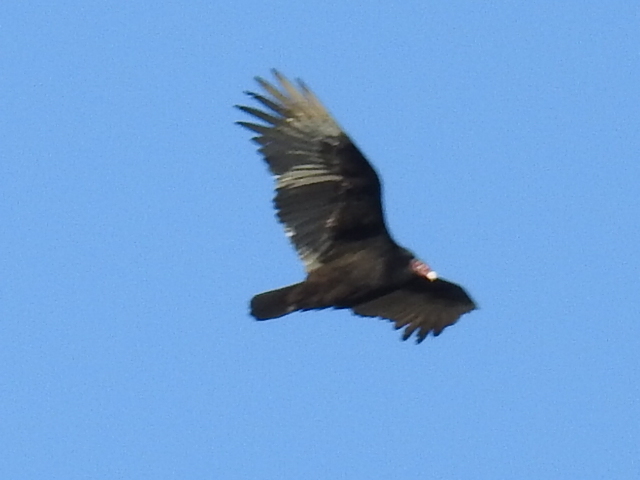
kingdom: Animalia
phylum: Chordata
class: Aves
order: Accipitriformes
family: Cathartidae
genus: Cathartes
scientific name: Cathartes aura
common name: Turkey vulture
